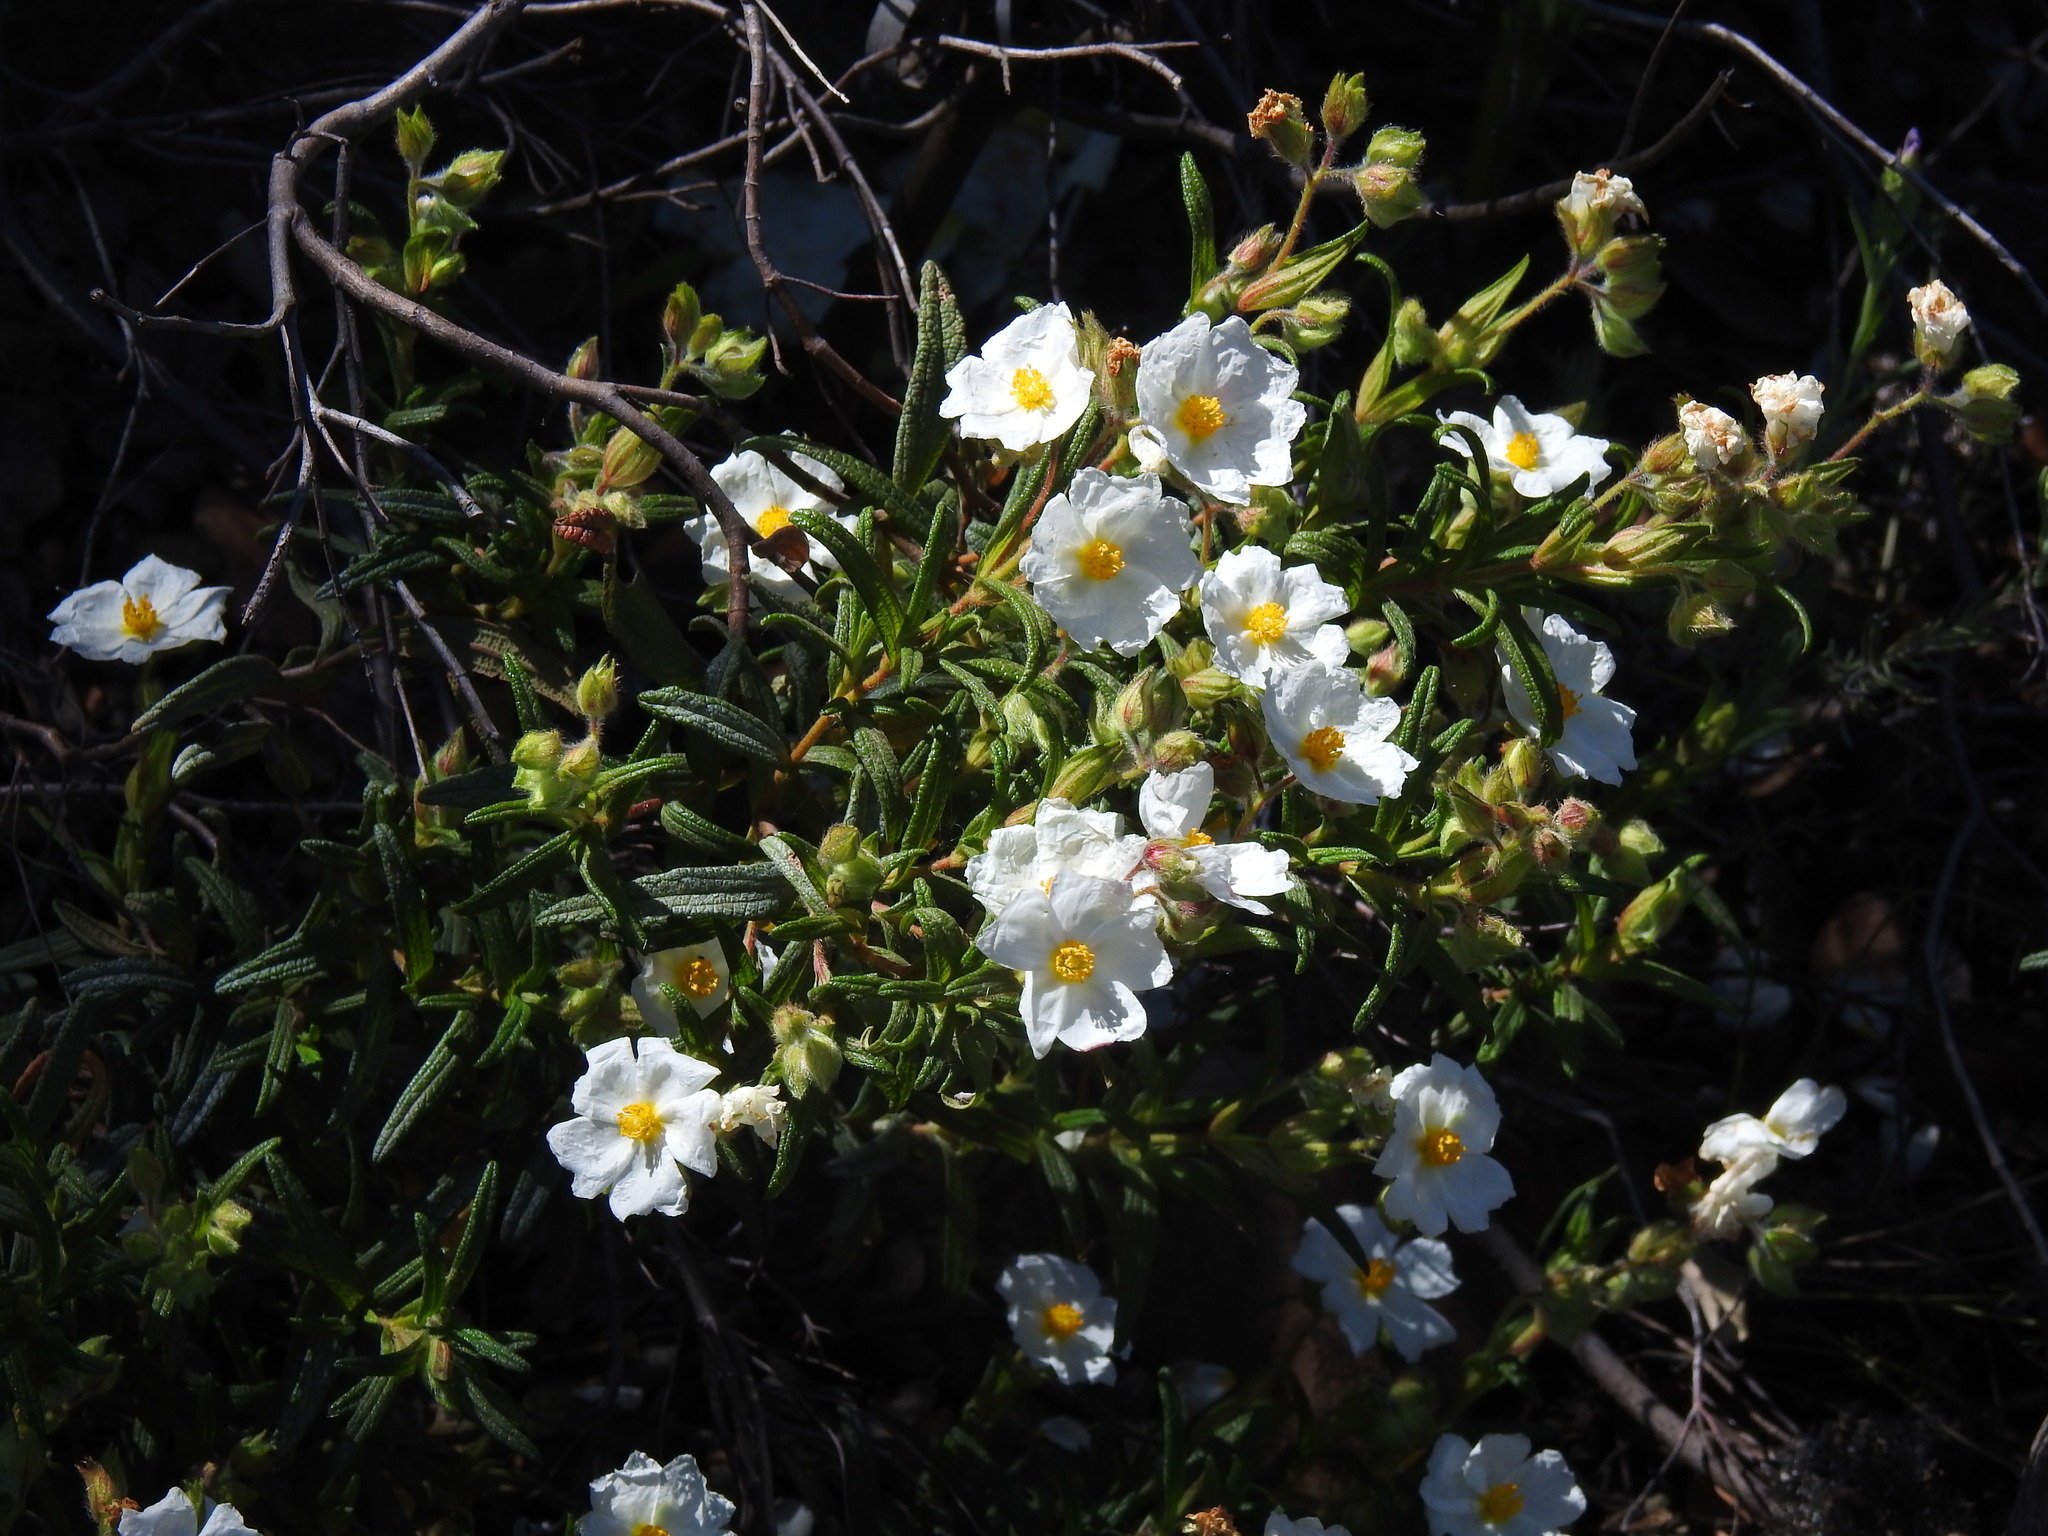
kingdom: Plantae
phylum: Tracheophyta
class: Magnoliopsida
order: Malvales
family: Cistaceae
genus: Cistus
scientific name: Cistus monspeliensis
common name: Montpelier cistus
